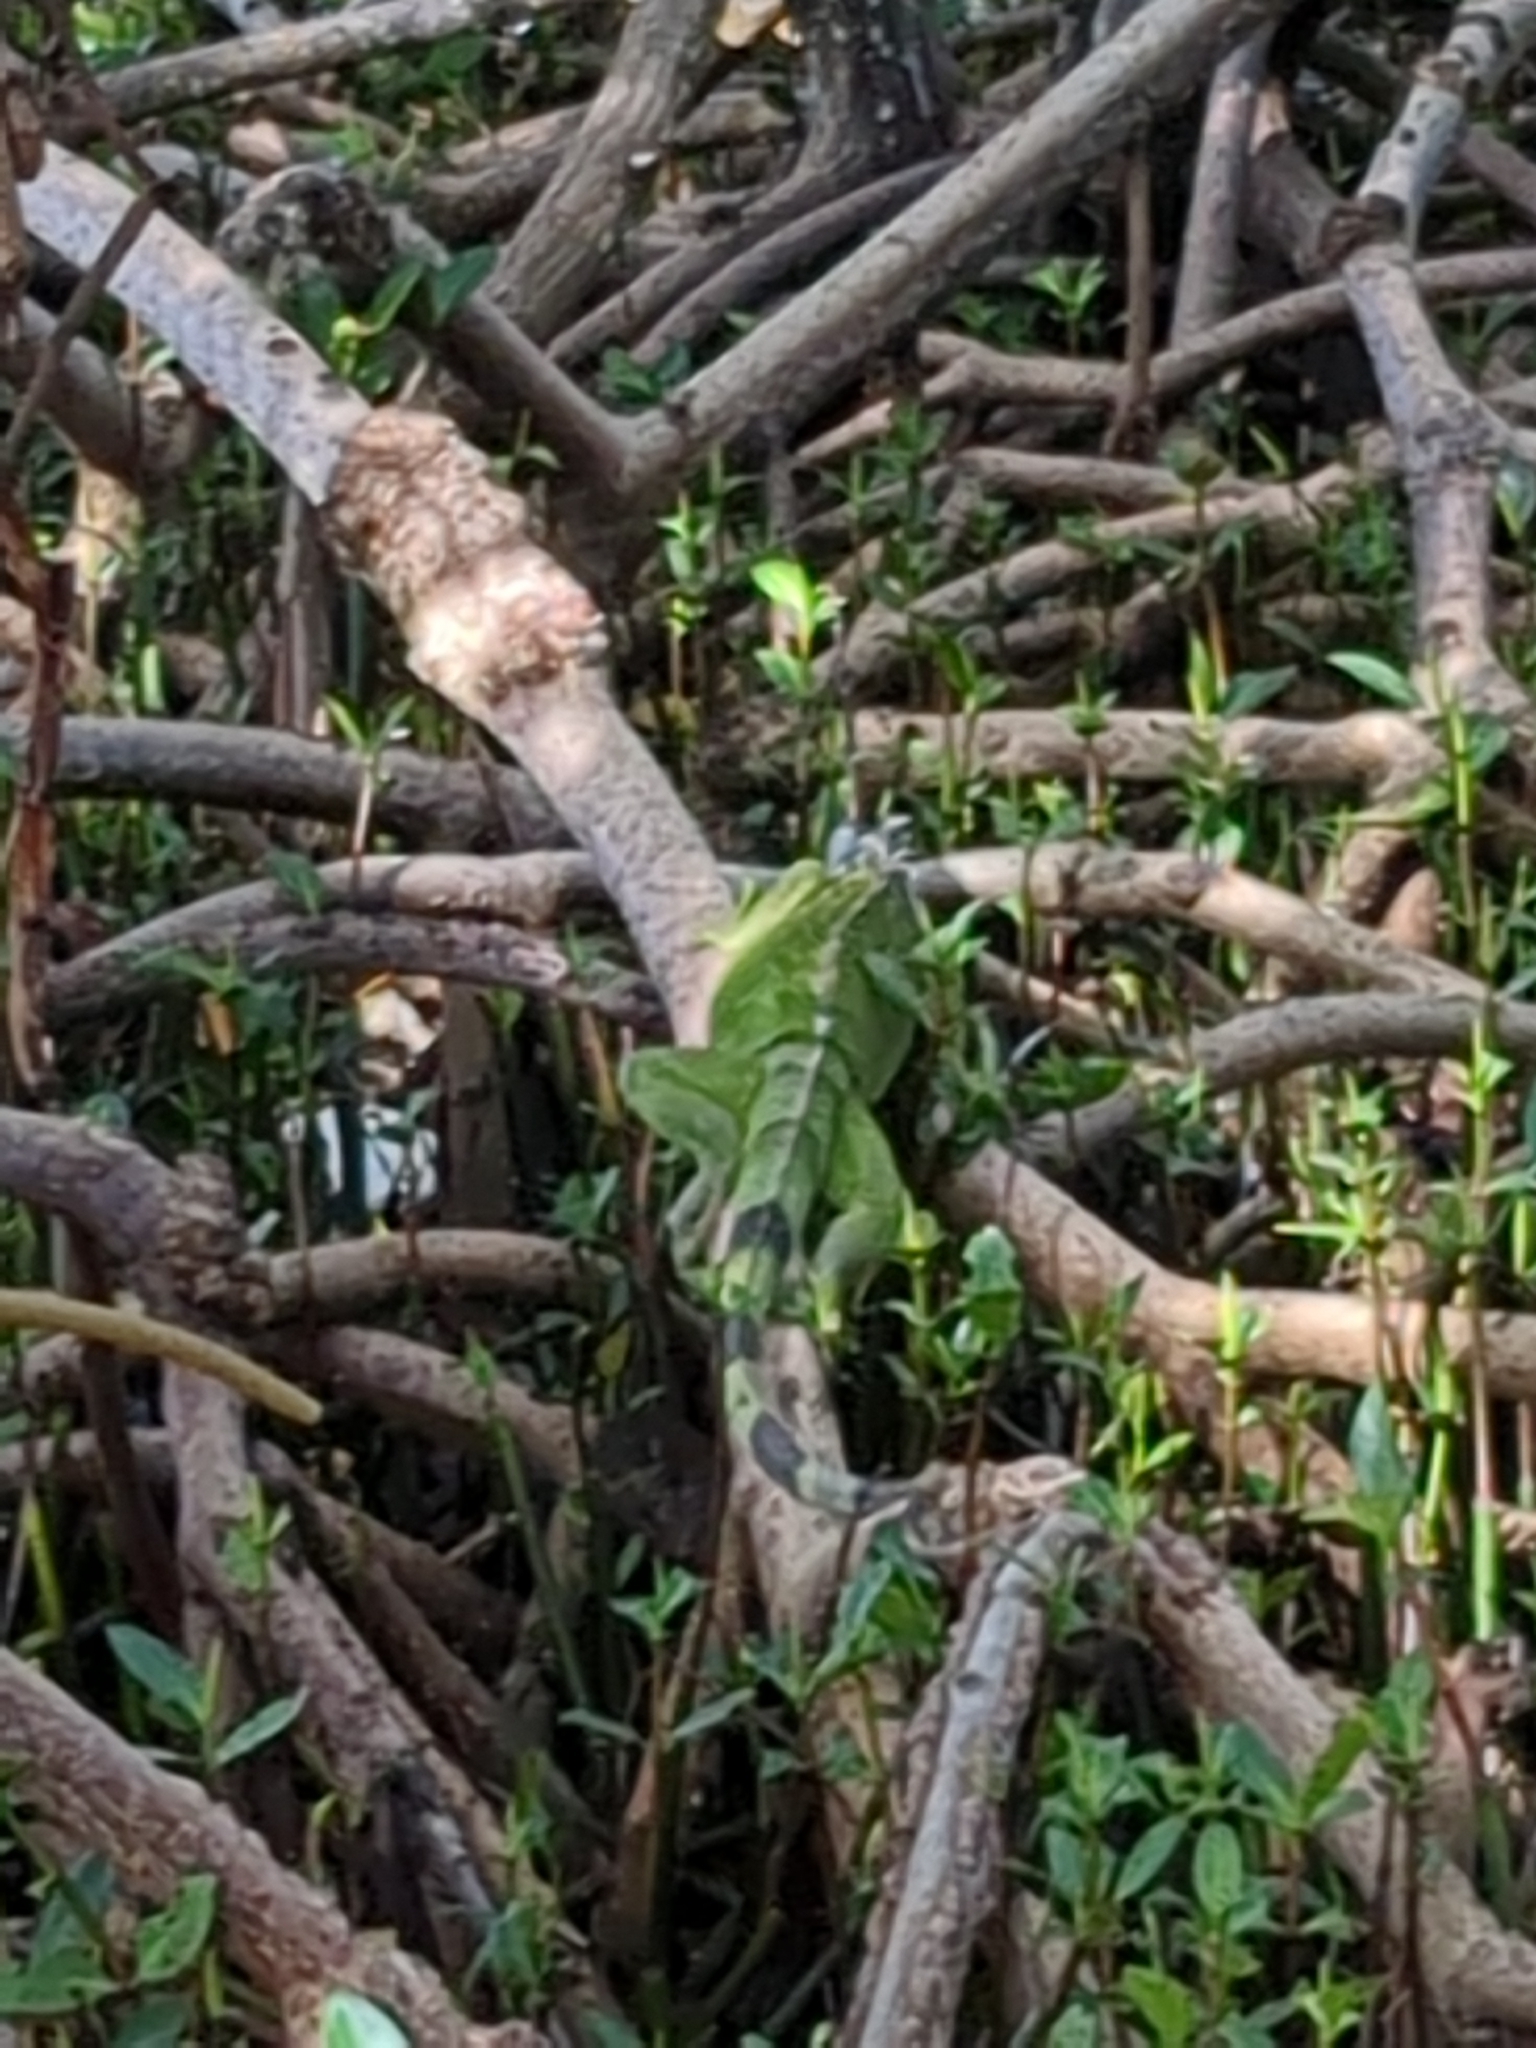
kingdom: Animalia
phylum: Chordata
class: Squamata
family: Iguanidae
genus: Iguana
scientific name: Iguana iguana
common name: Green iguana
